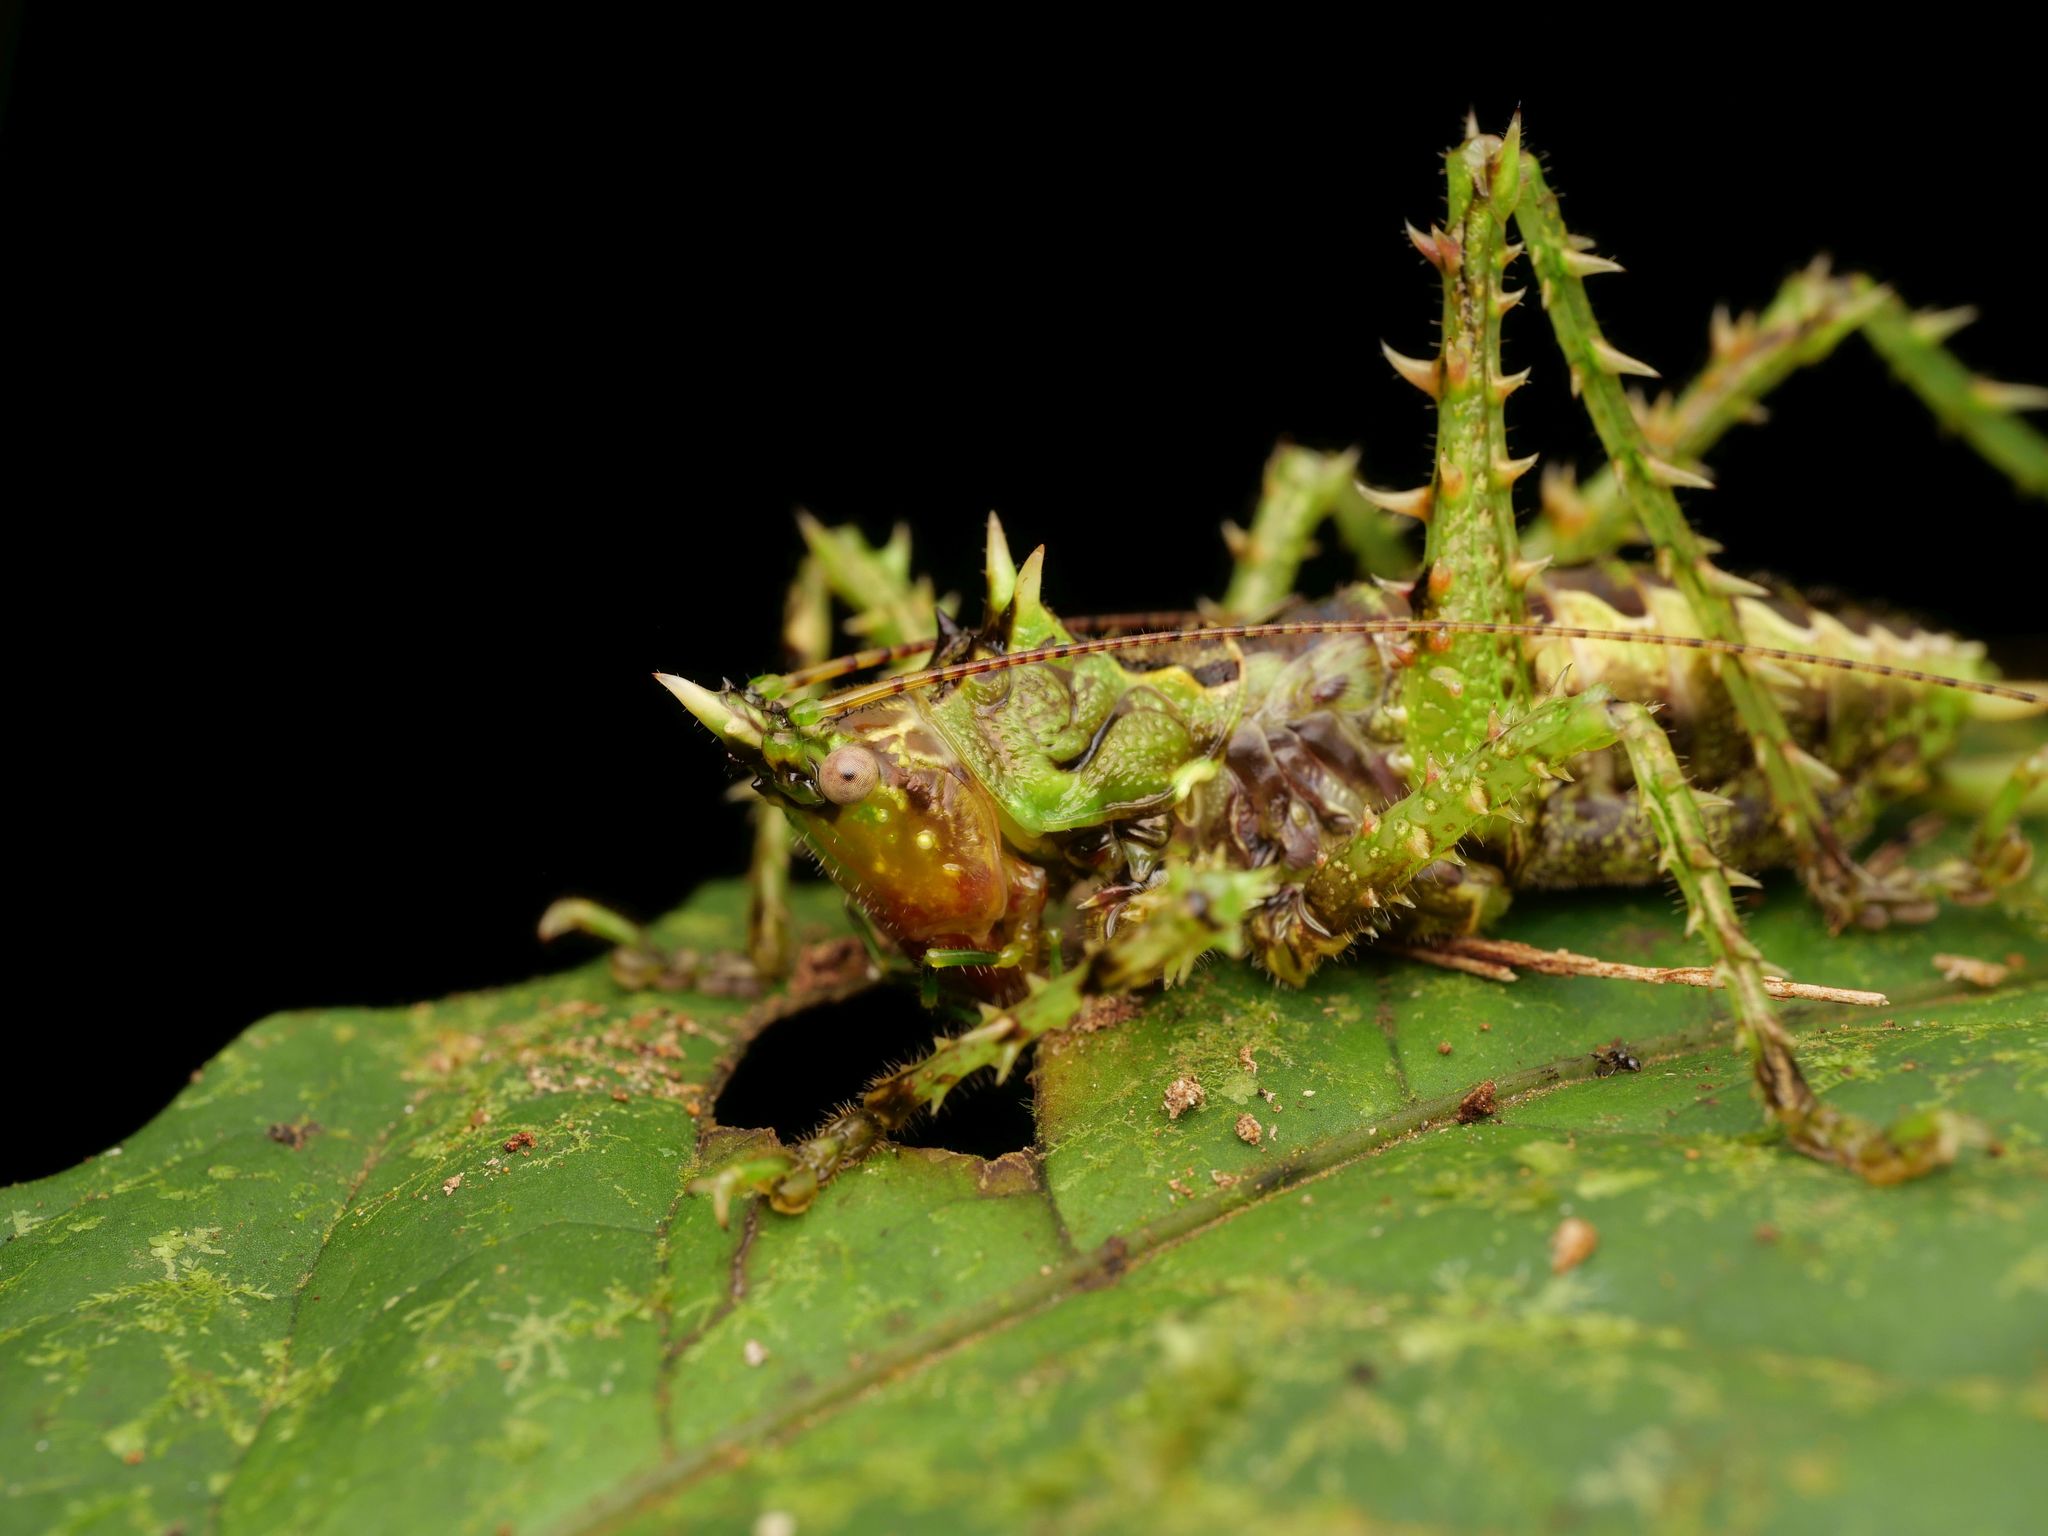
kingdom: Animalia
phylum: Arthropoda
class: Insecta
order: Orthoptera
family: Tettigoniidae
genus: Panacanthus
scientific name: Panacanthus varius
